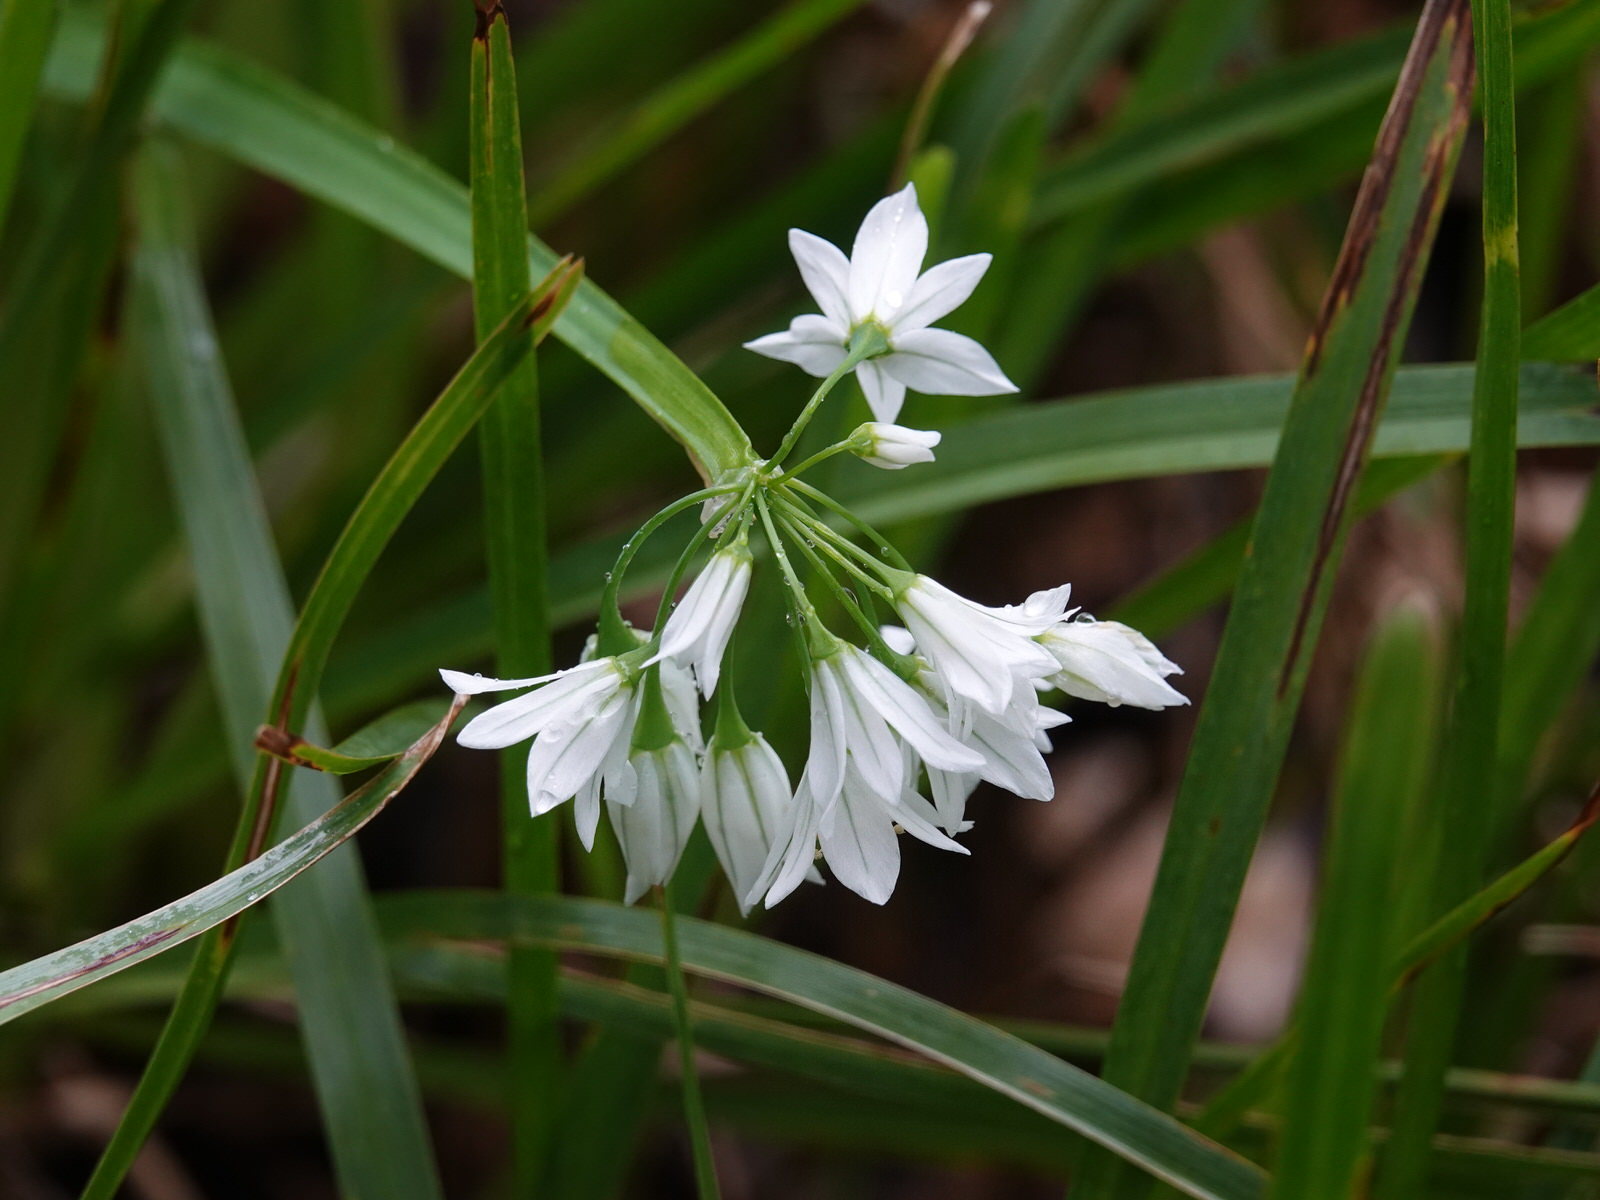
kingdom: Plantae
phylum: Tracheophyta
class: Liliopsida
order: Asparagales
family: Amaryllidaceae
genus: Allium
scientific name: Allium triquetrum
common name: Three-cornered garlic
